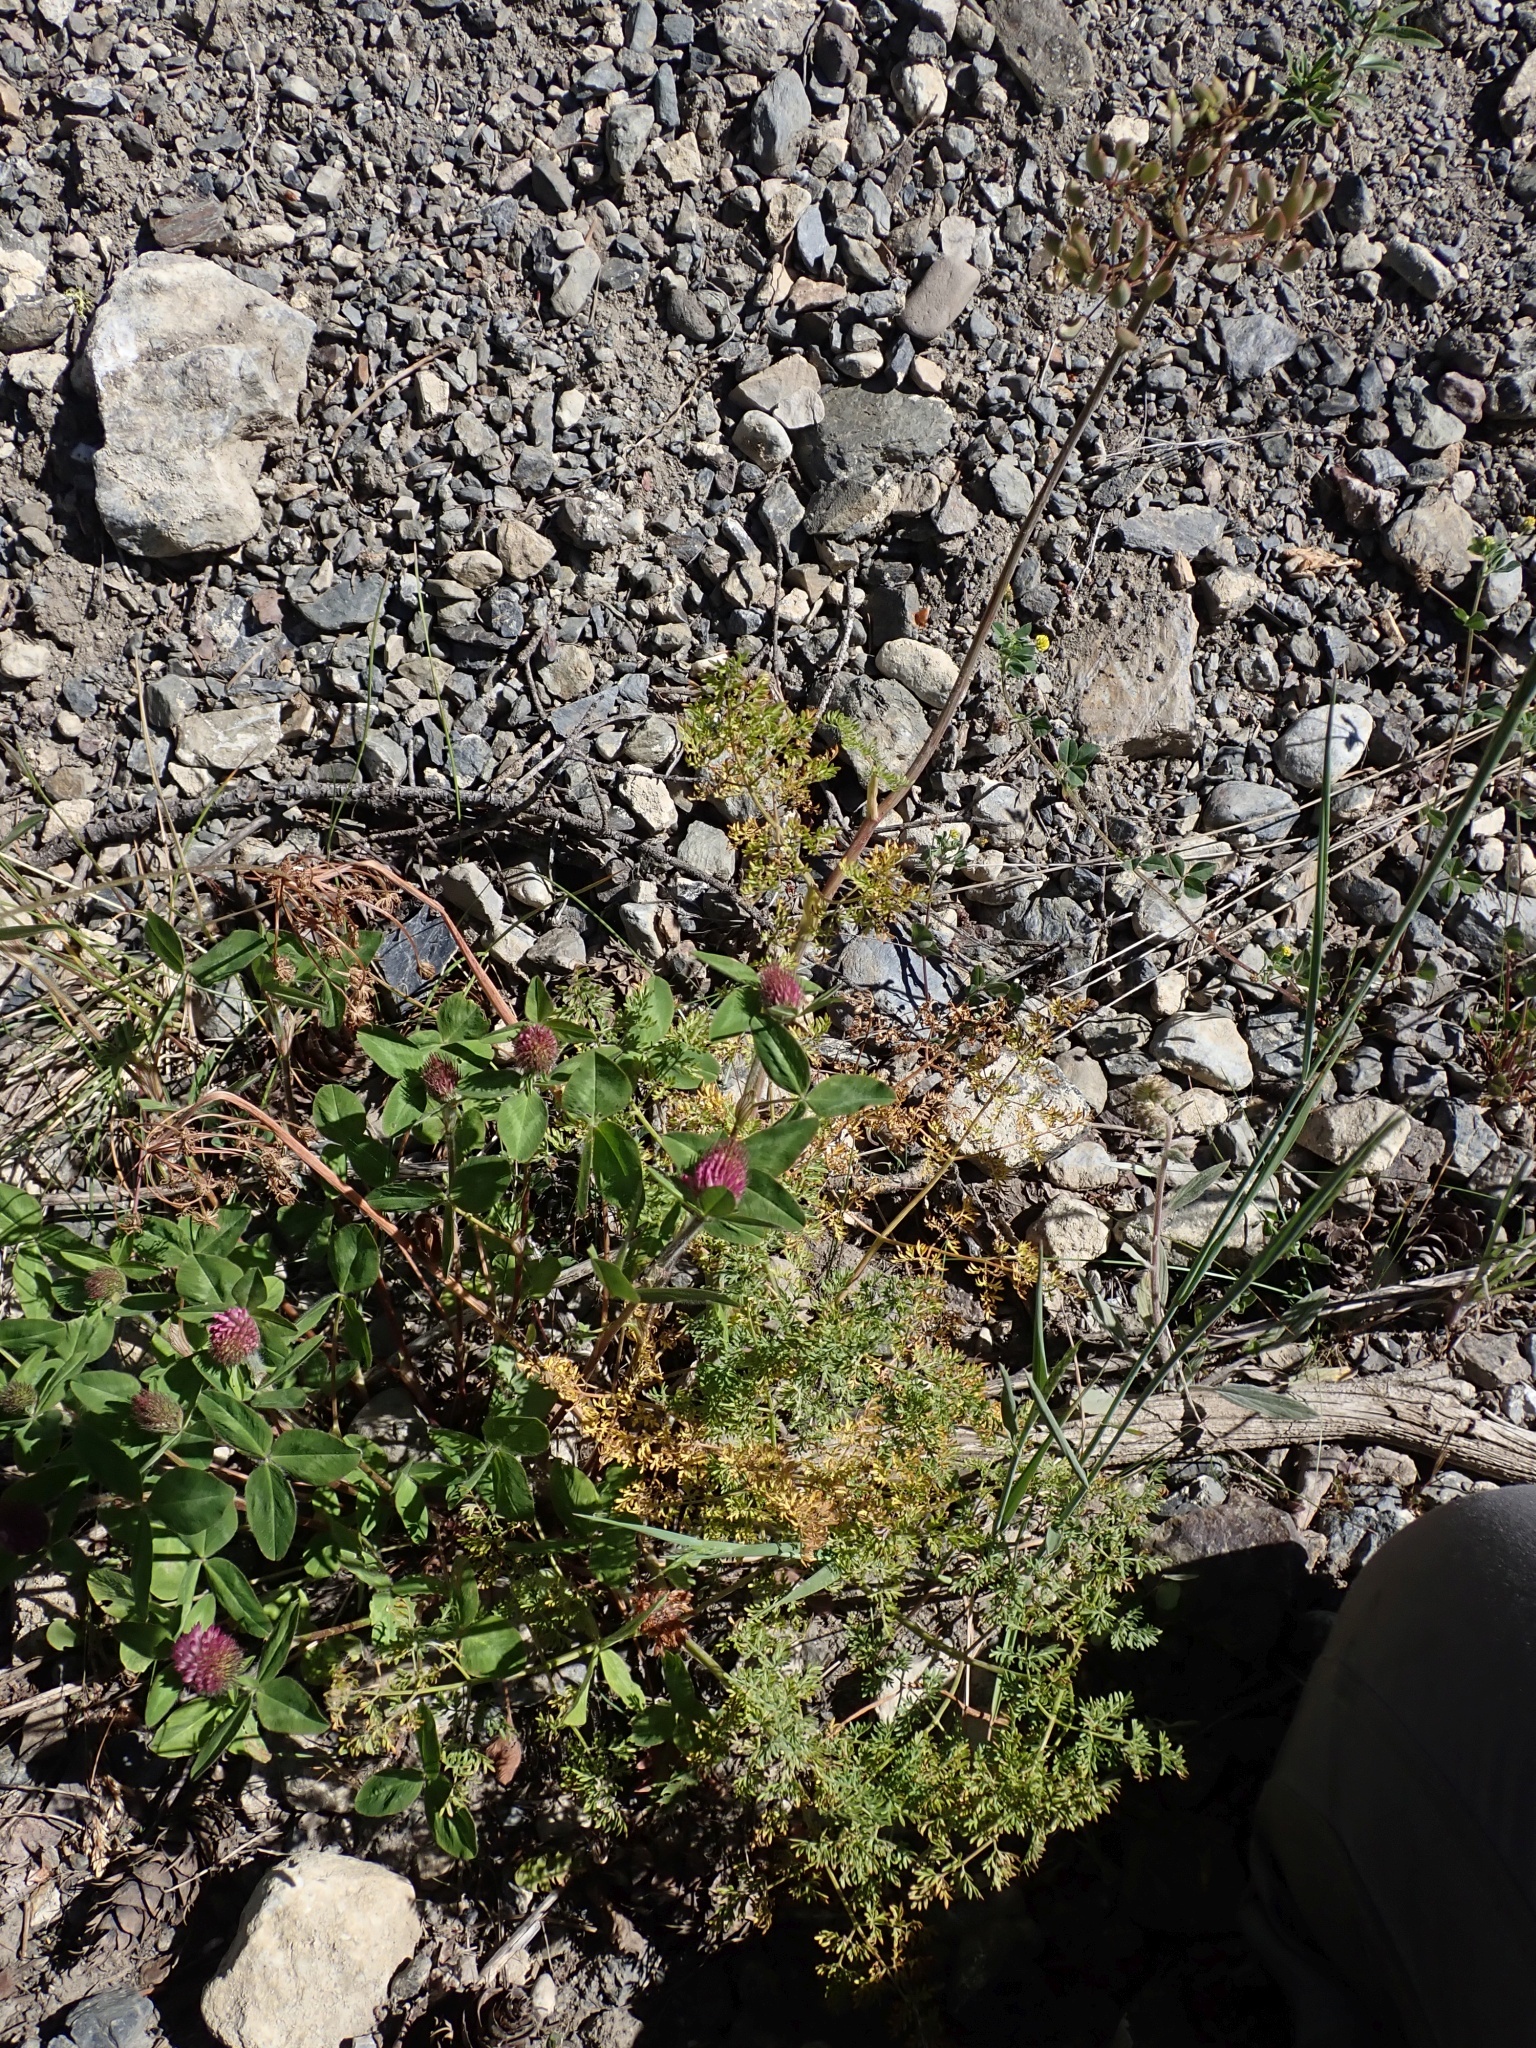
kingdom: Plantae
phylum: Tracheophyta
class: Magnoliopsida
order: Fabales
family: Fabaceae
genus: Trifolium
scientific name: Trifolium pratense
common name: Red clover
